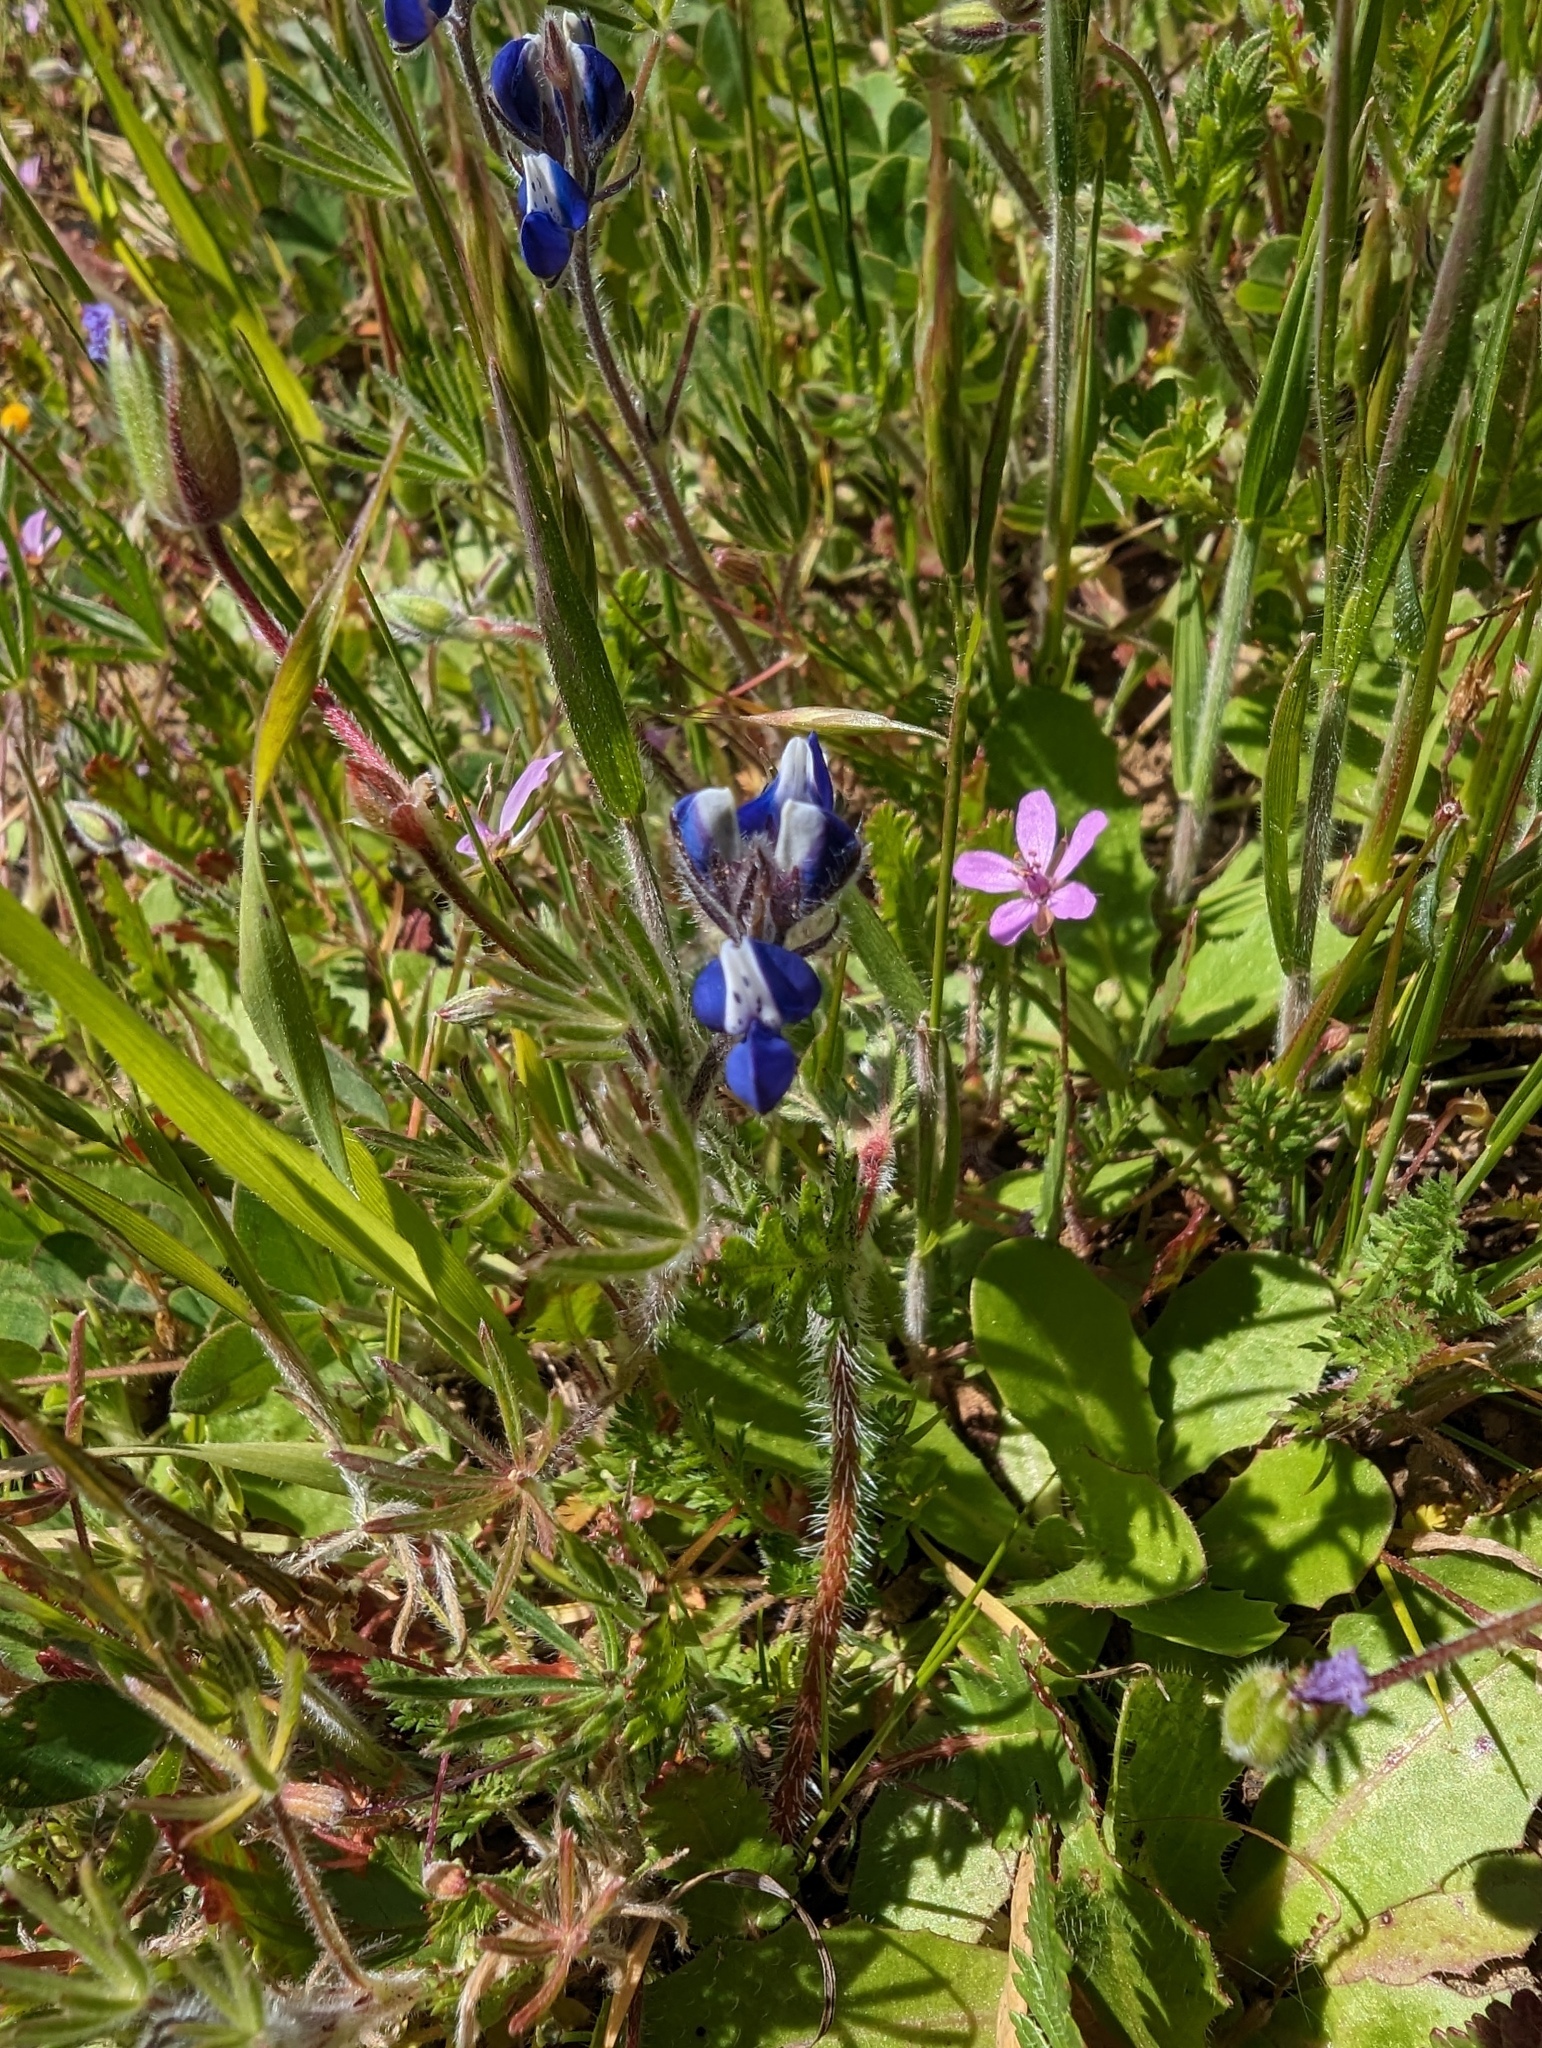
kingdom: Plantae
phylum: Tracheophyta
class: Magnoliopsida
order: Fabales
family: Fabaceae
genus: Lupinus
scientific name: Lupinus nanus
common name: Orean blue lupin
